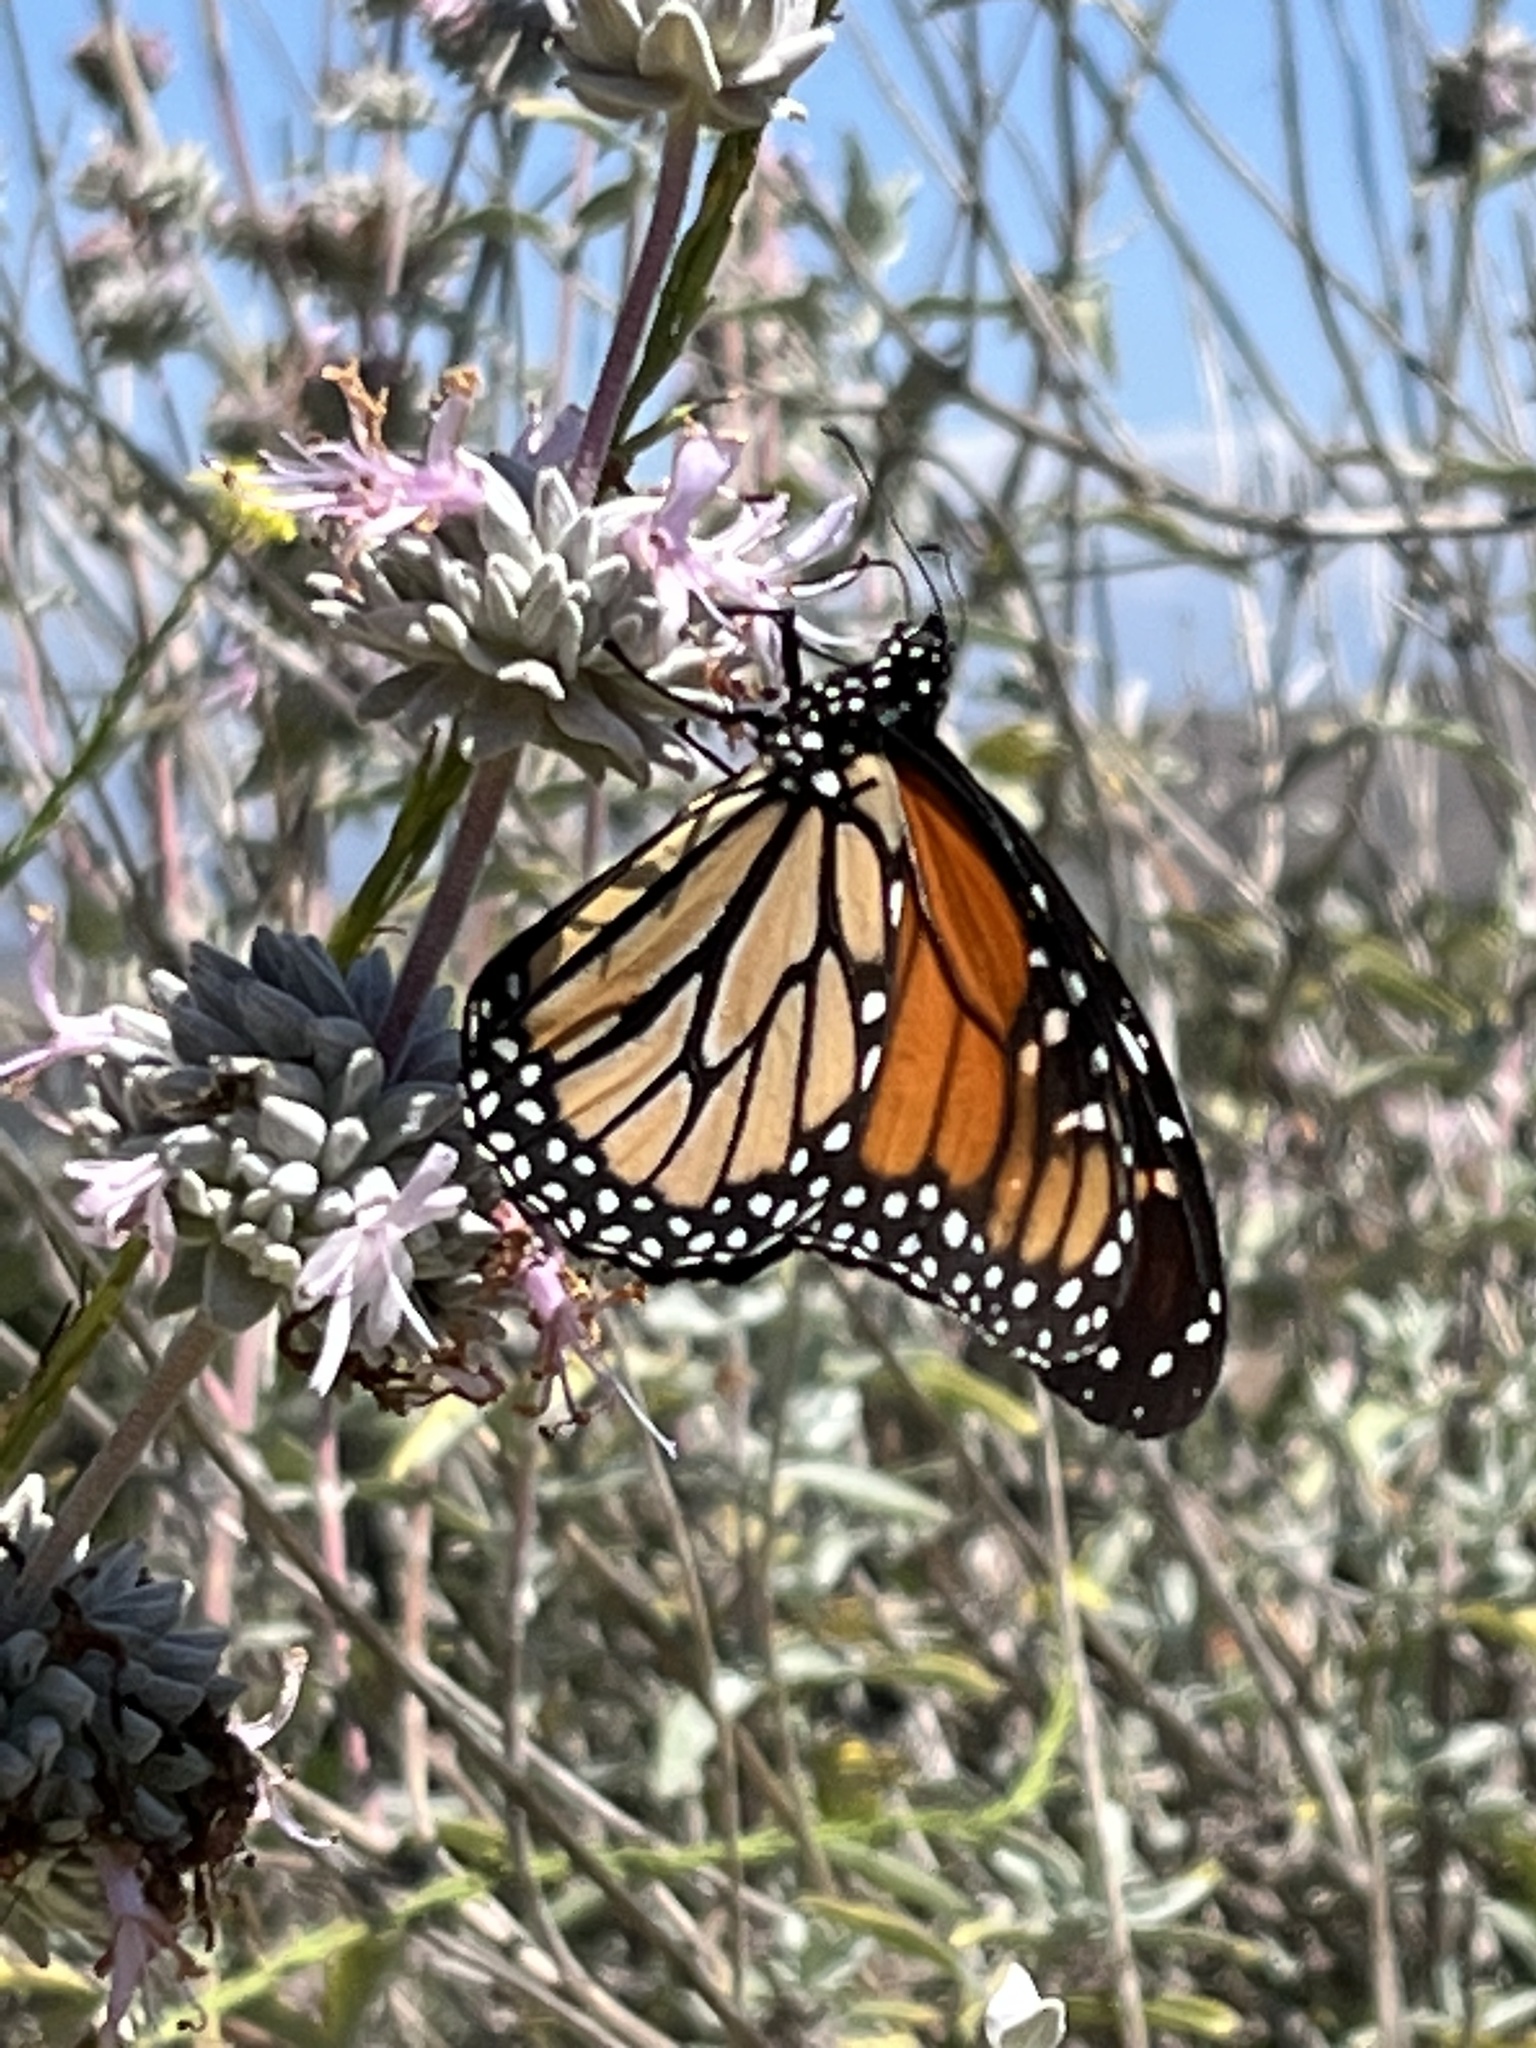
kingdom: Animalia
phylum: Arthropoda
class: Insecta
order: Lepidoptera
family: Nymphalidae
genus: Danaus
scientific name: Danaus plexippus
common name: Monarch
